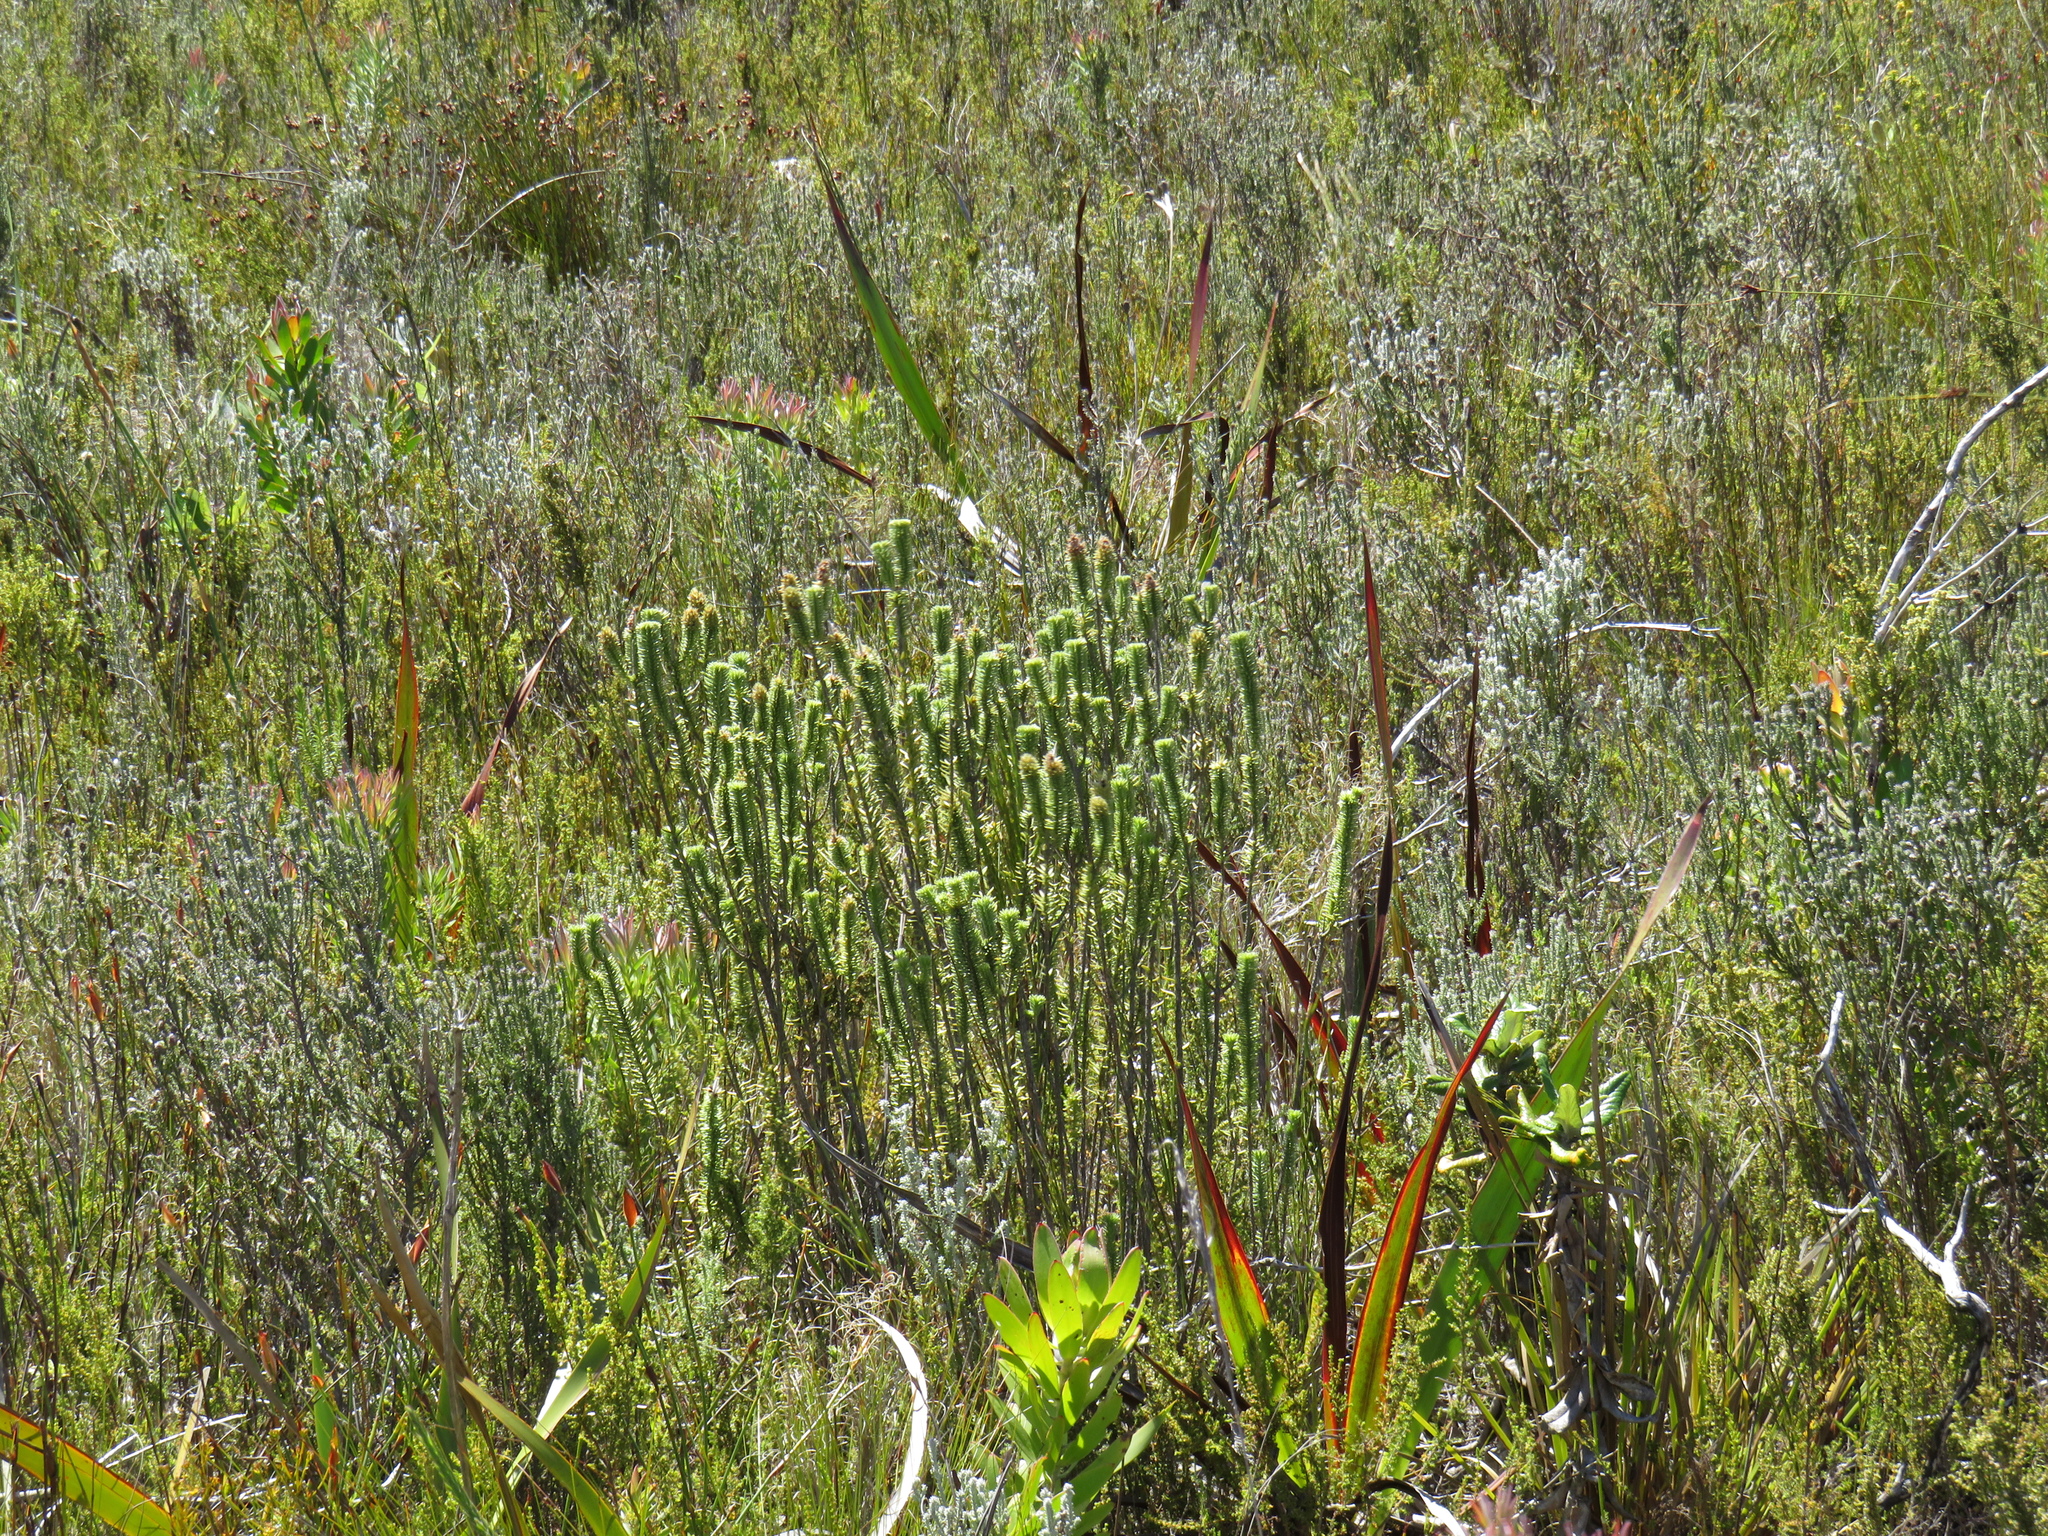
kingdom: Plantae
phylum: Tracheophyta
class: Magnoliopsida
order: Lamiales
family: Stilbaceae
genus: Stilbe
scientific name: Stilbe vestita
